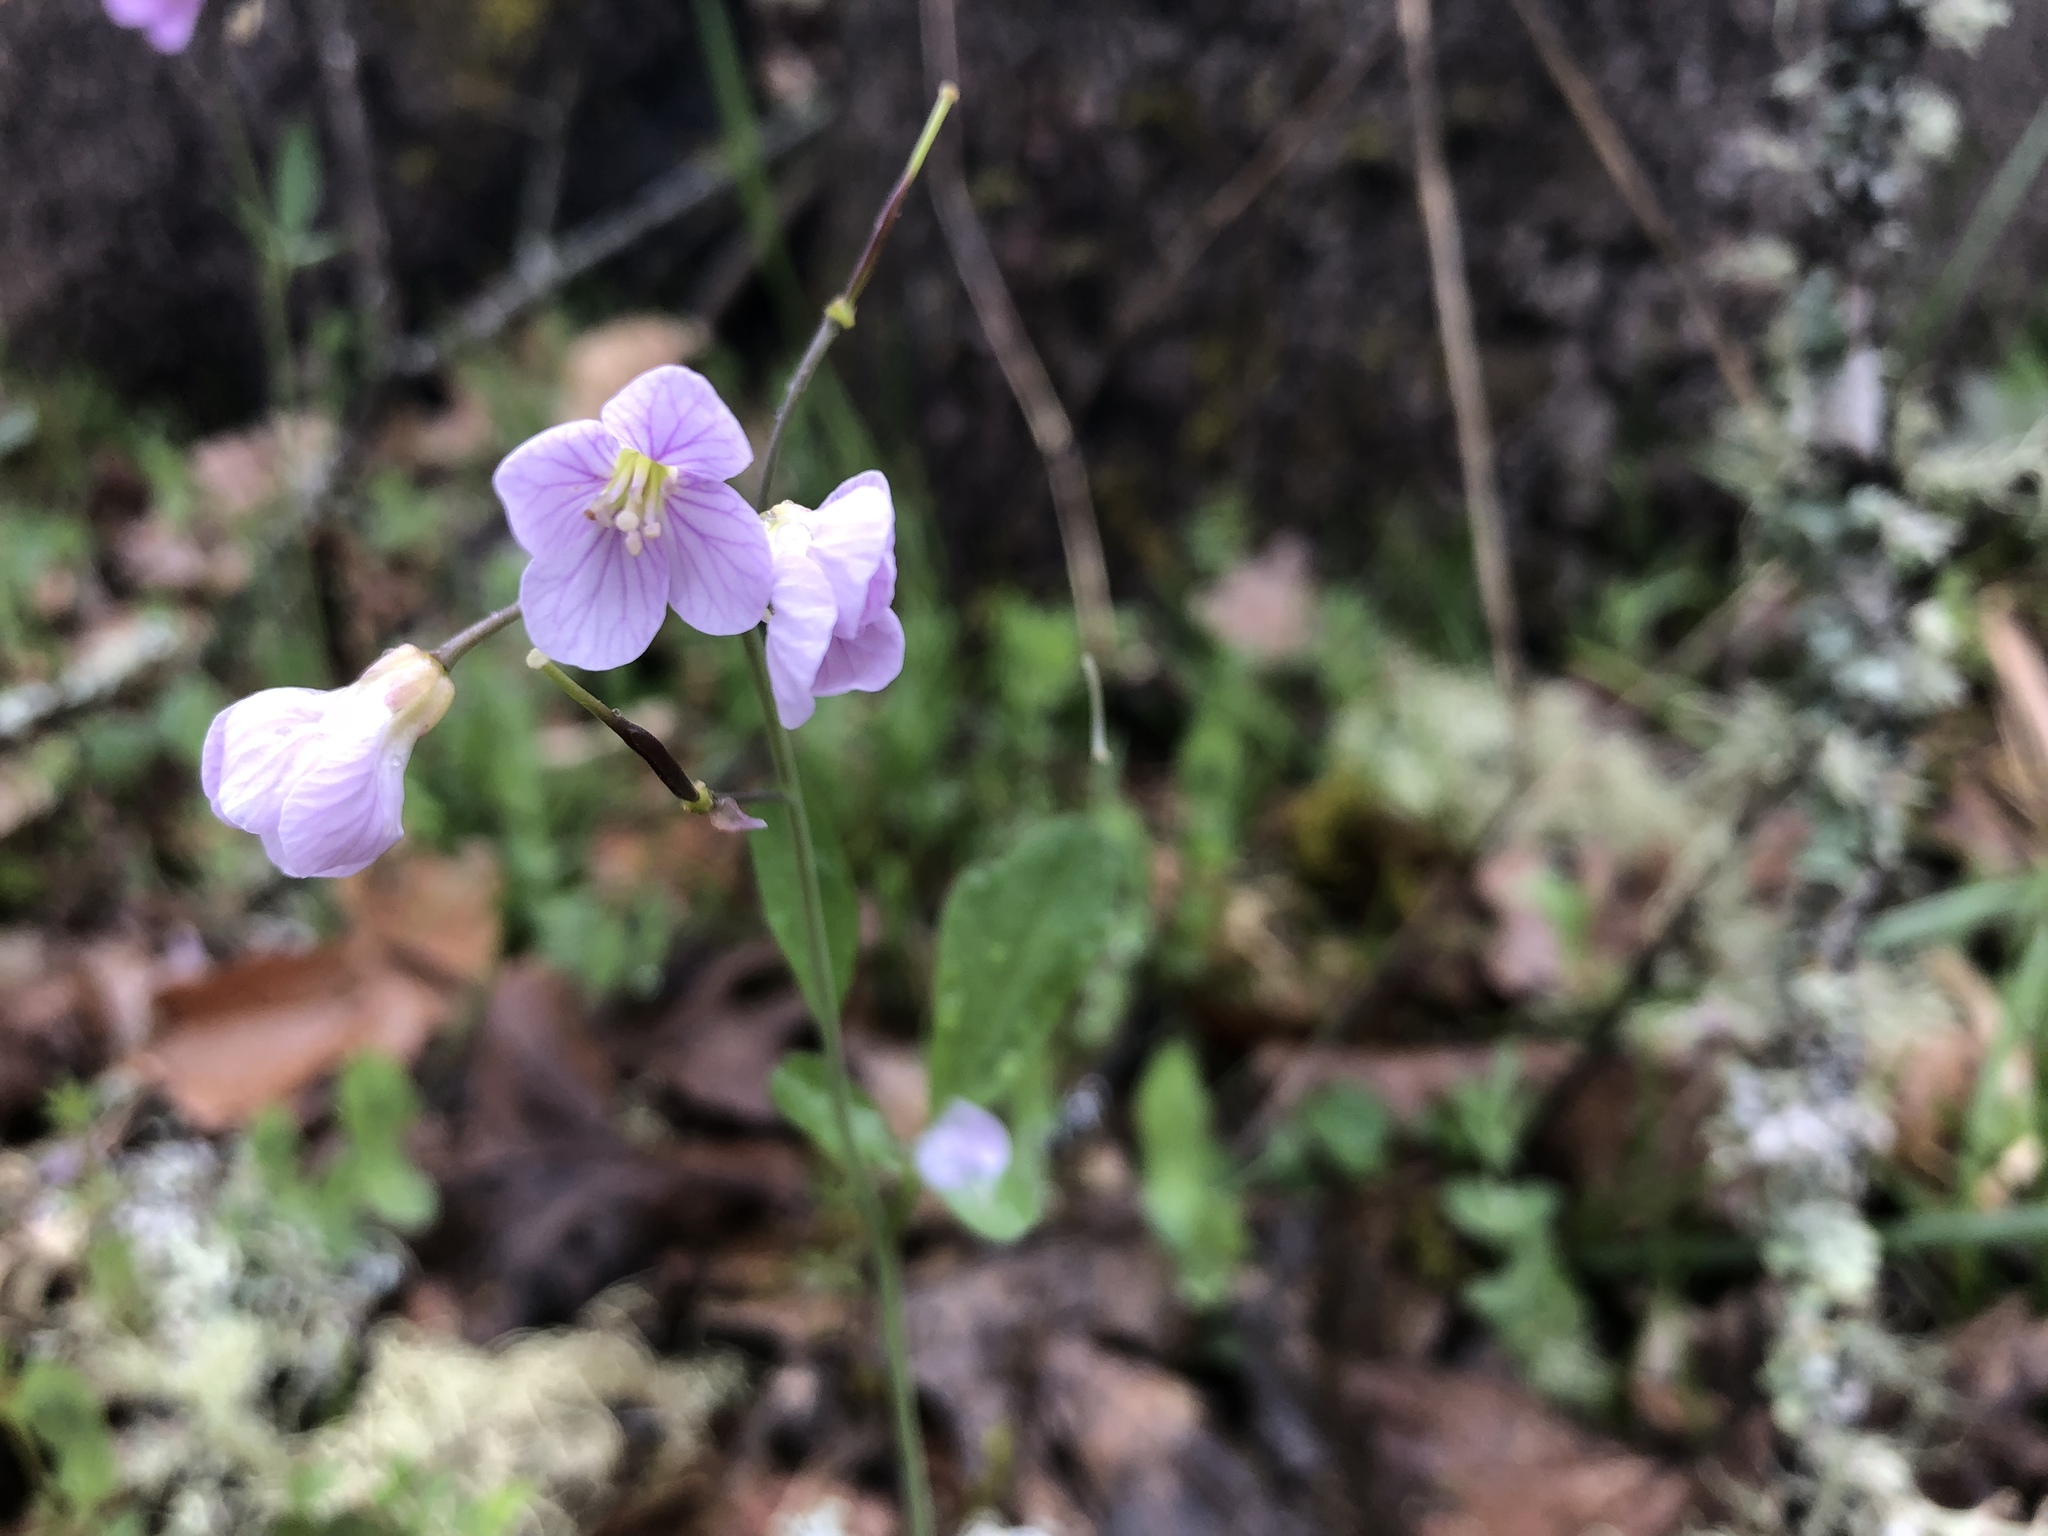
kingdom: Plantae
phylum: Tracheophyta
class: Magnoliopsida
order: Brassicales
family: Brassicaceae
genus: Cardamine
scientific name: Cardamine nuttallii
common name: Nuttall's toothwort
